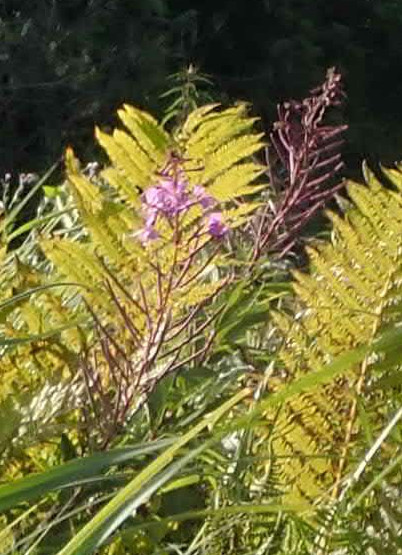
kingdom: Plantae
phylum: Tracheophyta
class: Magnoliopsida
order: Myrtales
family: Onagraceae
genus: Chamaenerion
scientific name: Chamaenerion angustifolium
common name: Fireweed
